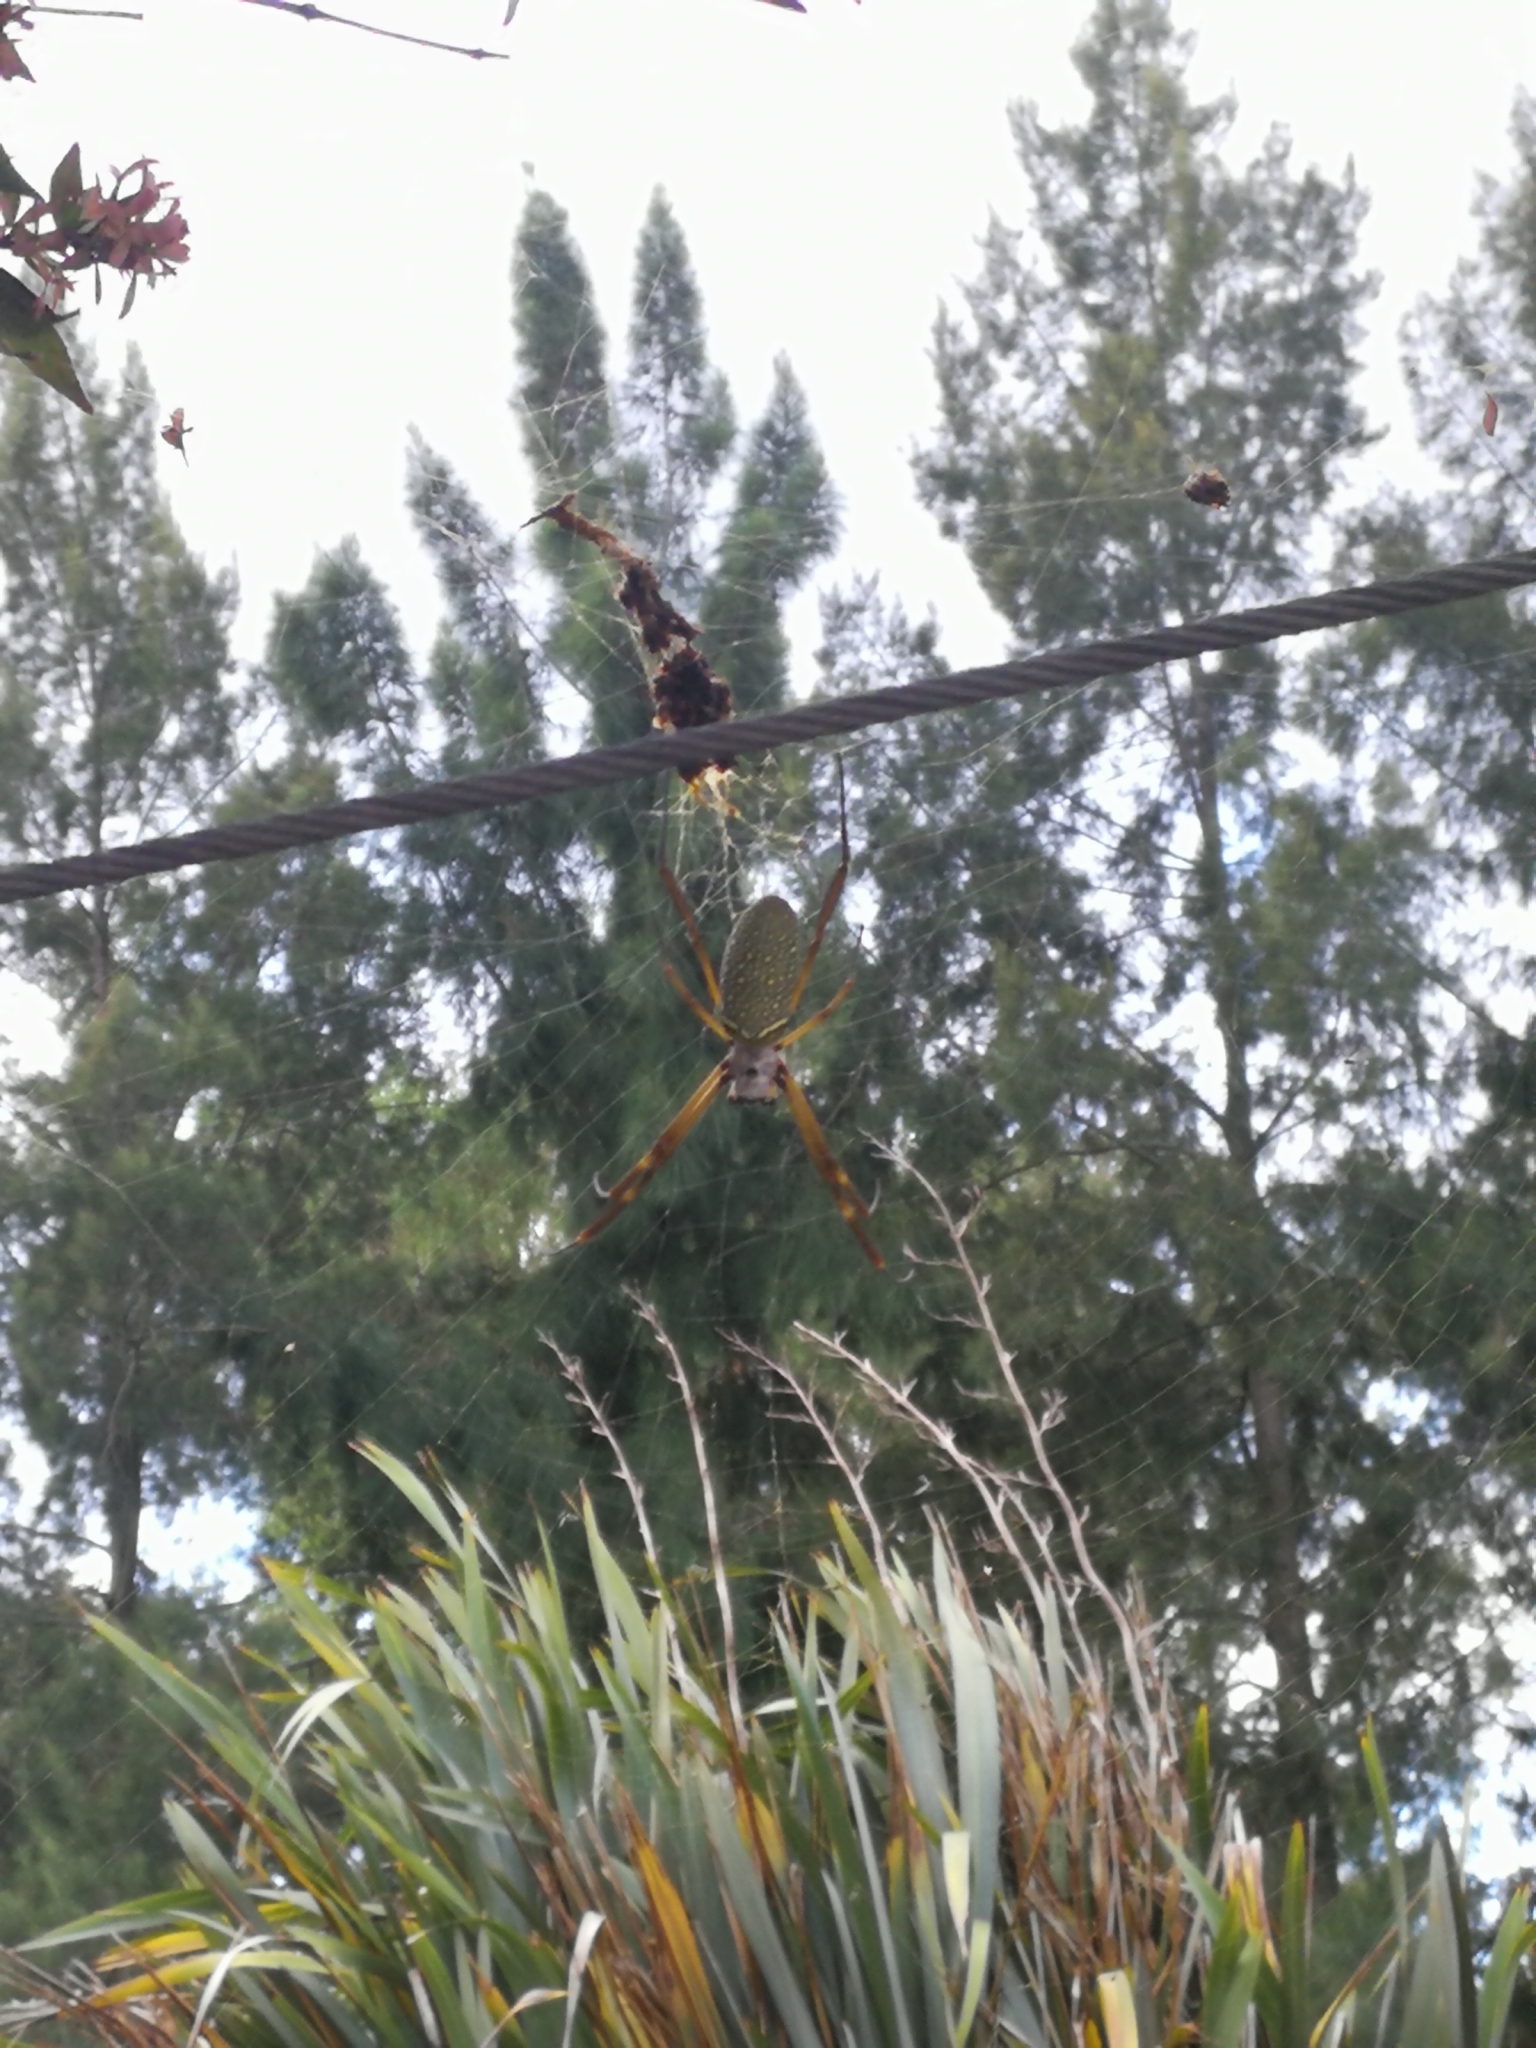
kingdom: Animalia
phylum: Arthropoda
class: Arachnida
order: Araneae
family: Araneidae
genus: Trichonephila
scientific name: Trichonephila clavipes
